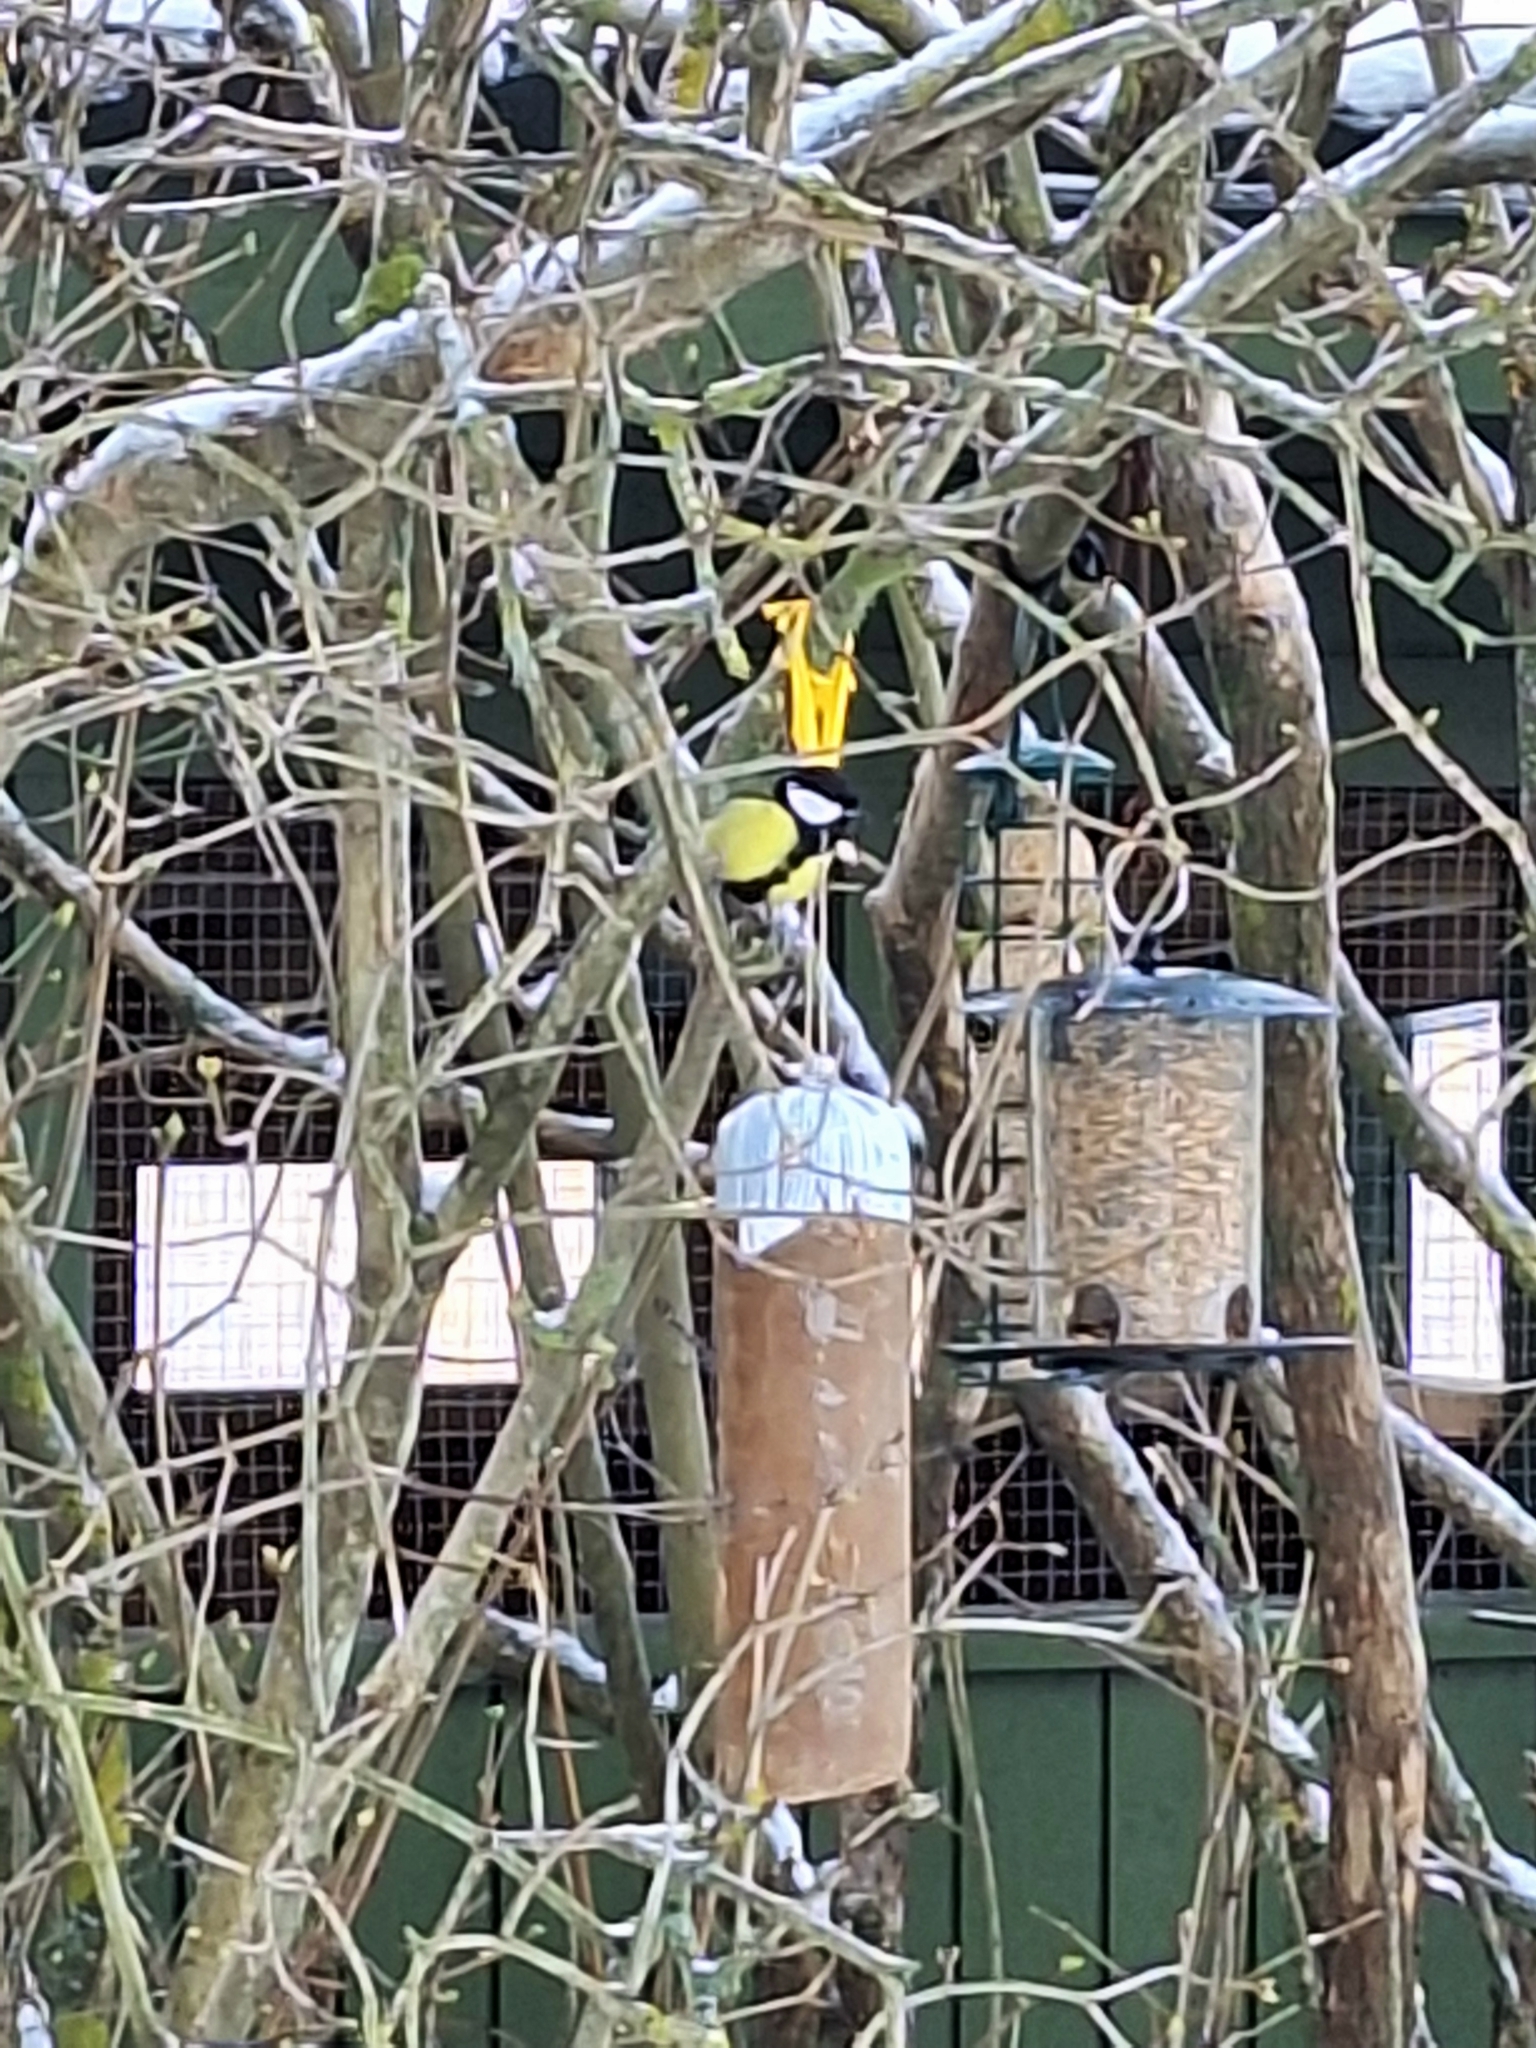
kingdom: Animalia
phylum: Chordata
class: Aves
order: Passeriformes
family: Paridae
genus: Parus
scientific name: Parus major
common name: Great tit
